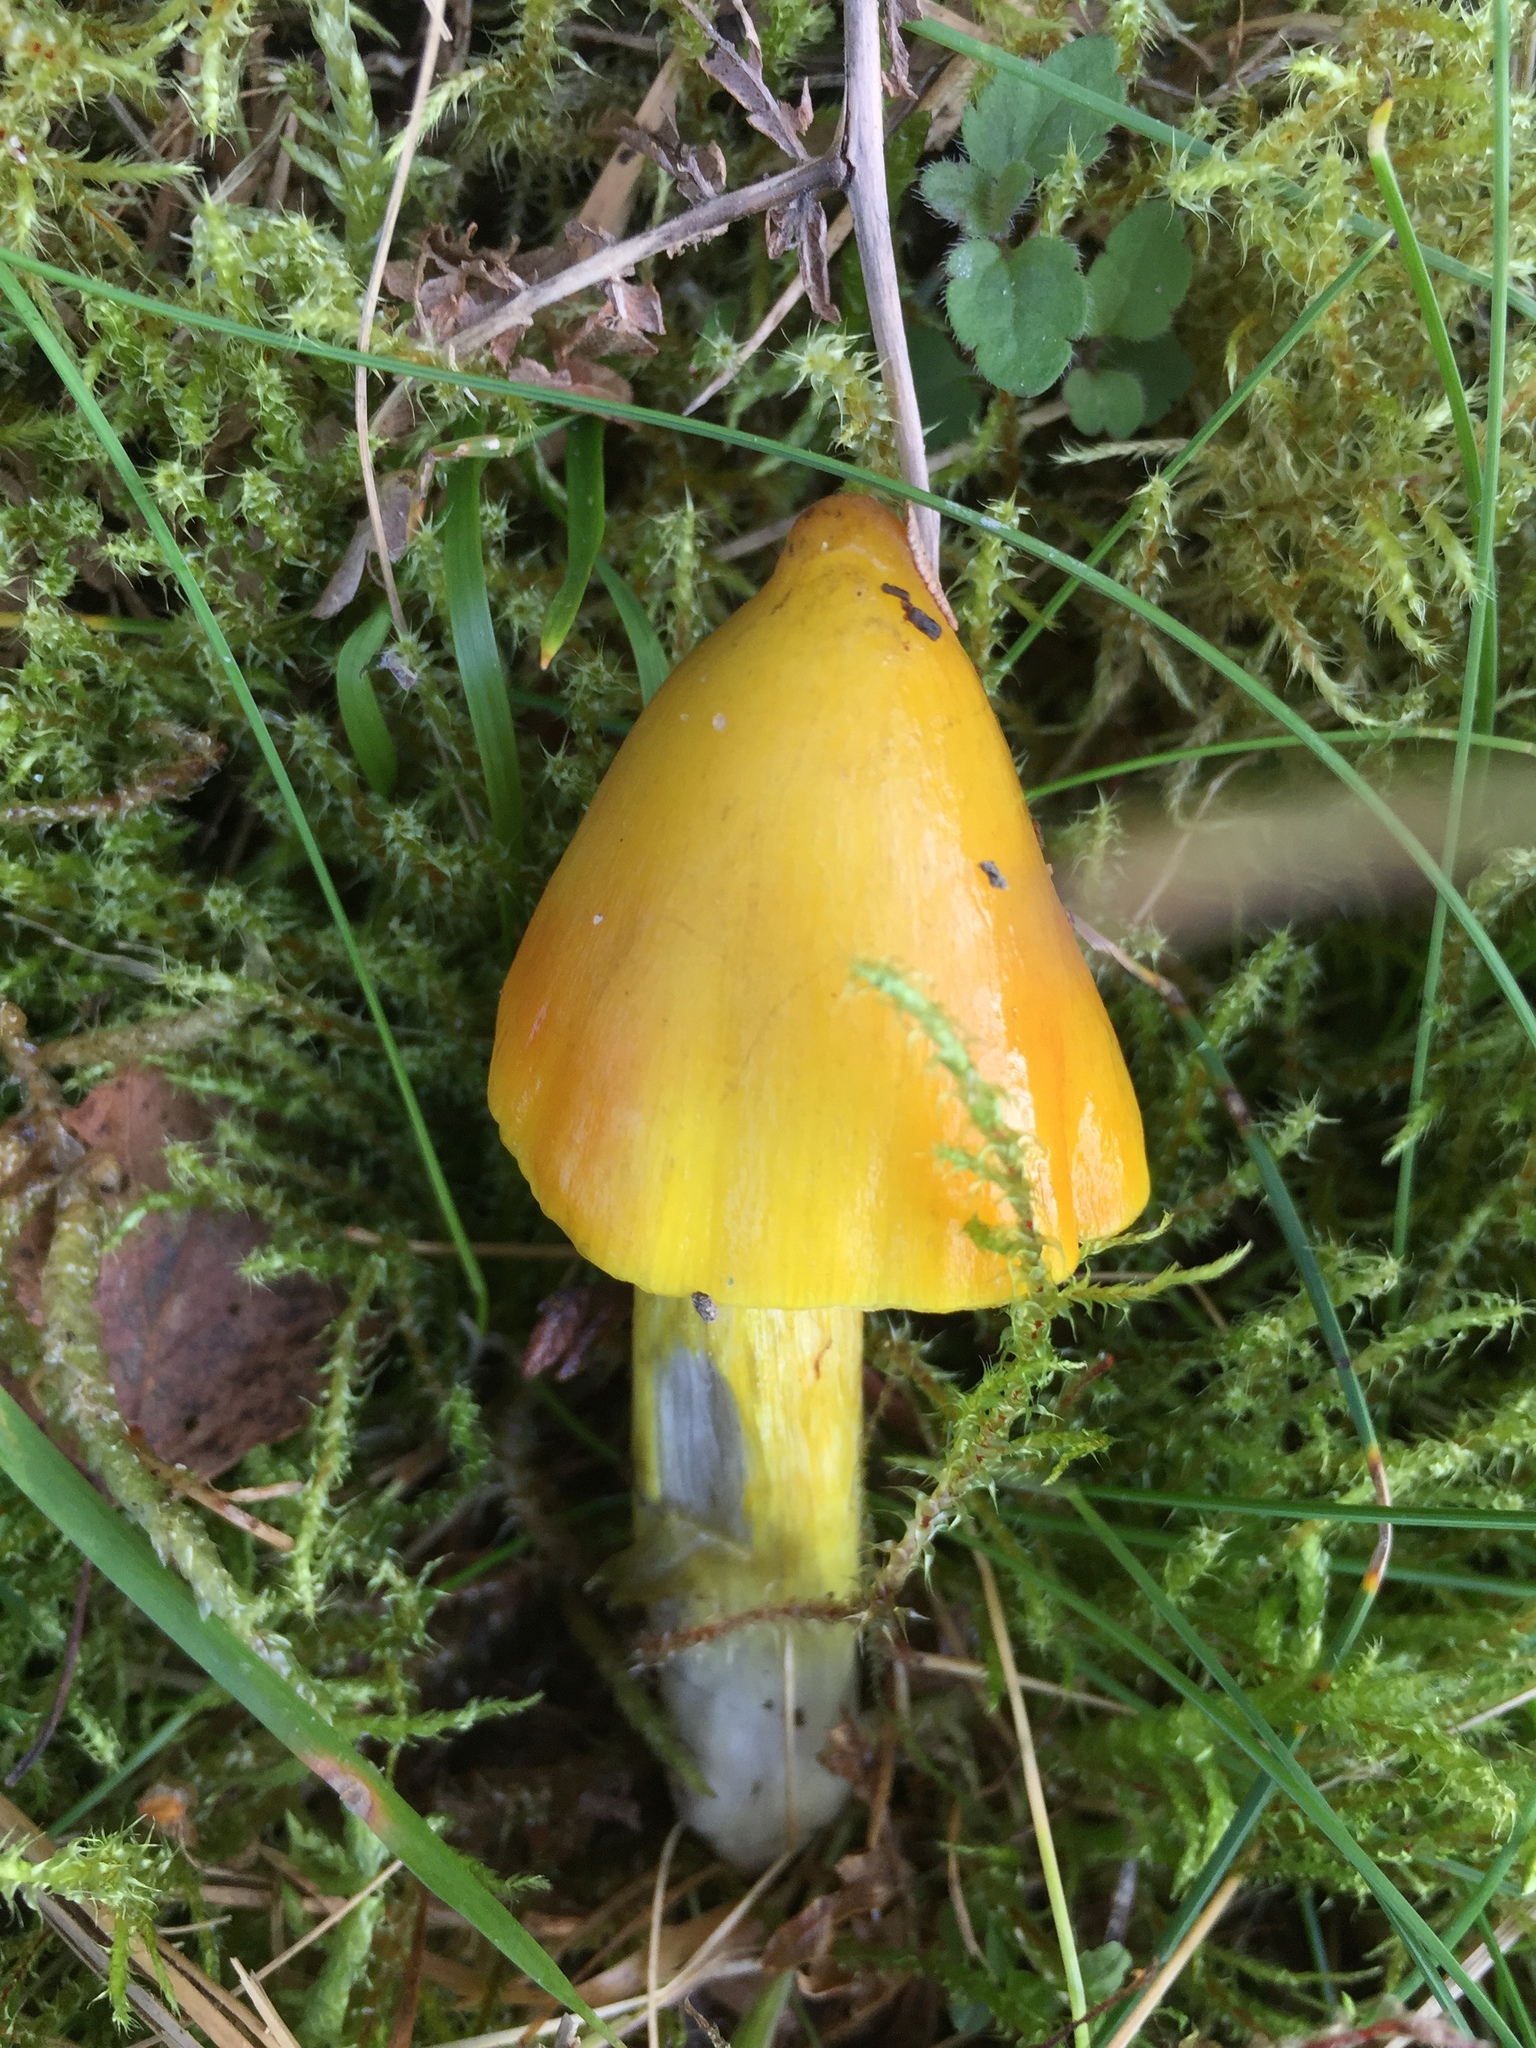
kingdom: Fungi
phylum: Basidiomycota
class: Agaricomycetes
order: Agaricales
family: Hygrophoraceae
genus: Hygrocybe
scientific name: Hygrocybe conica
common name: Blackening wax-cap
